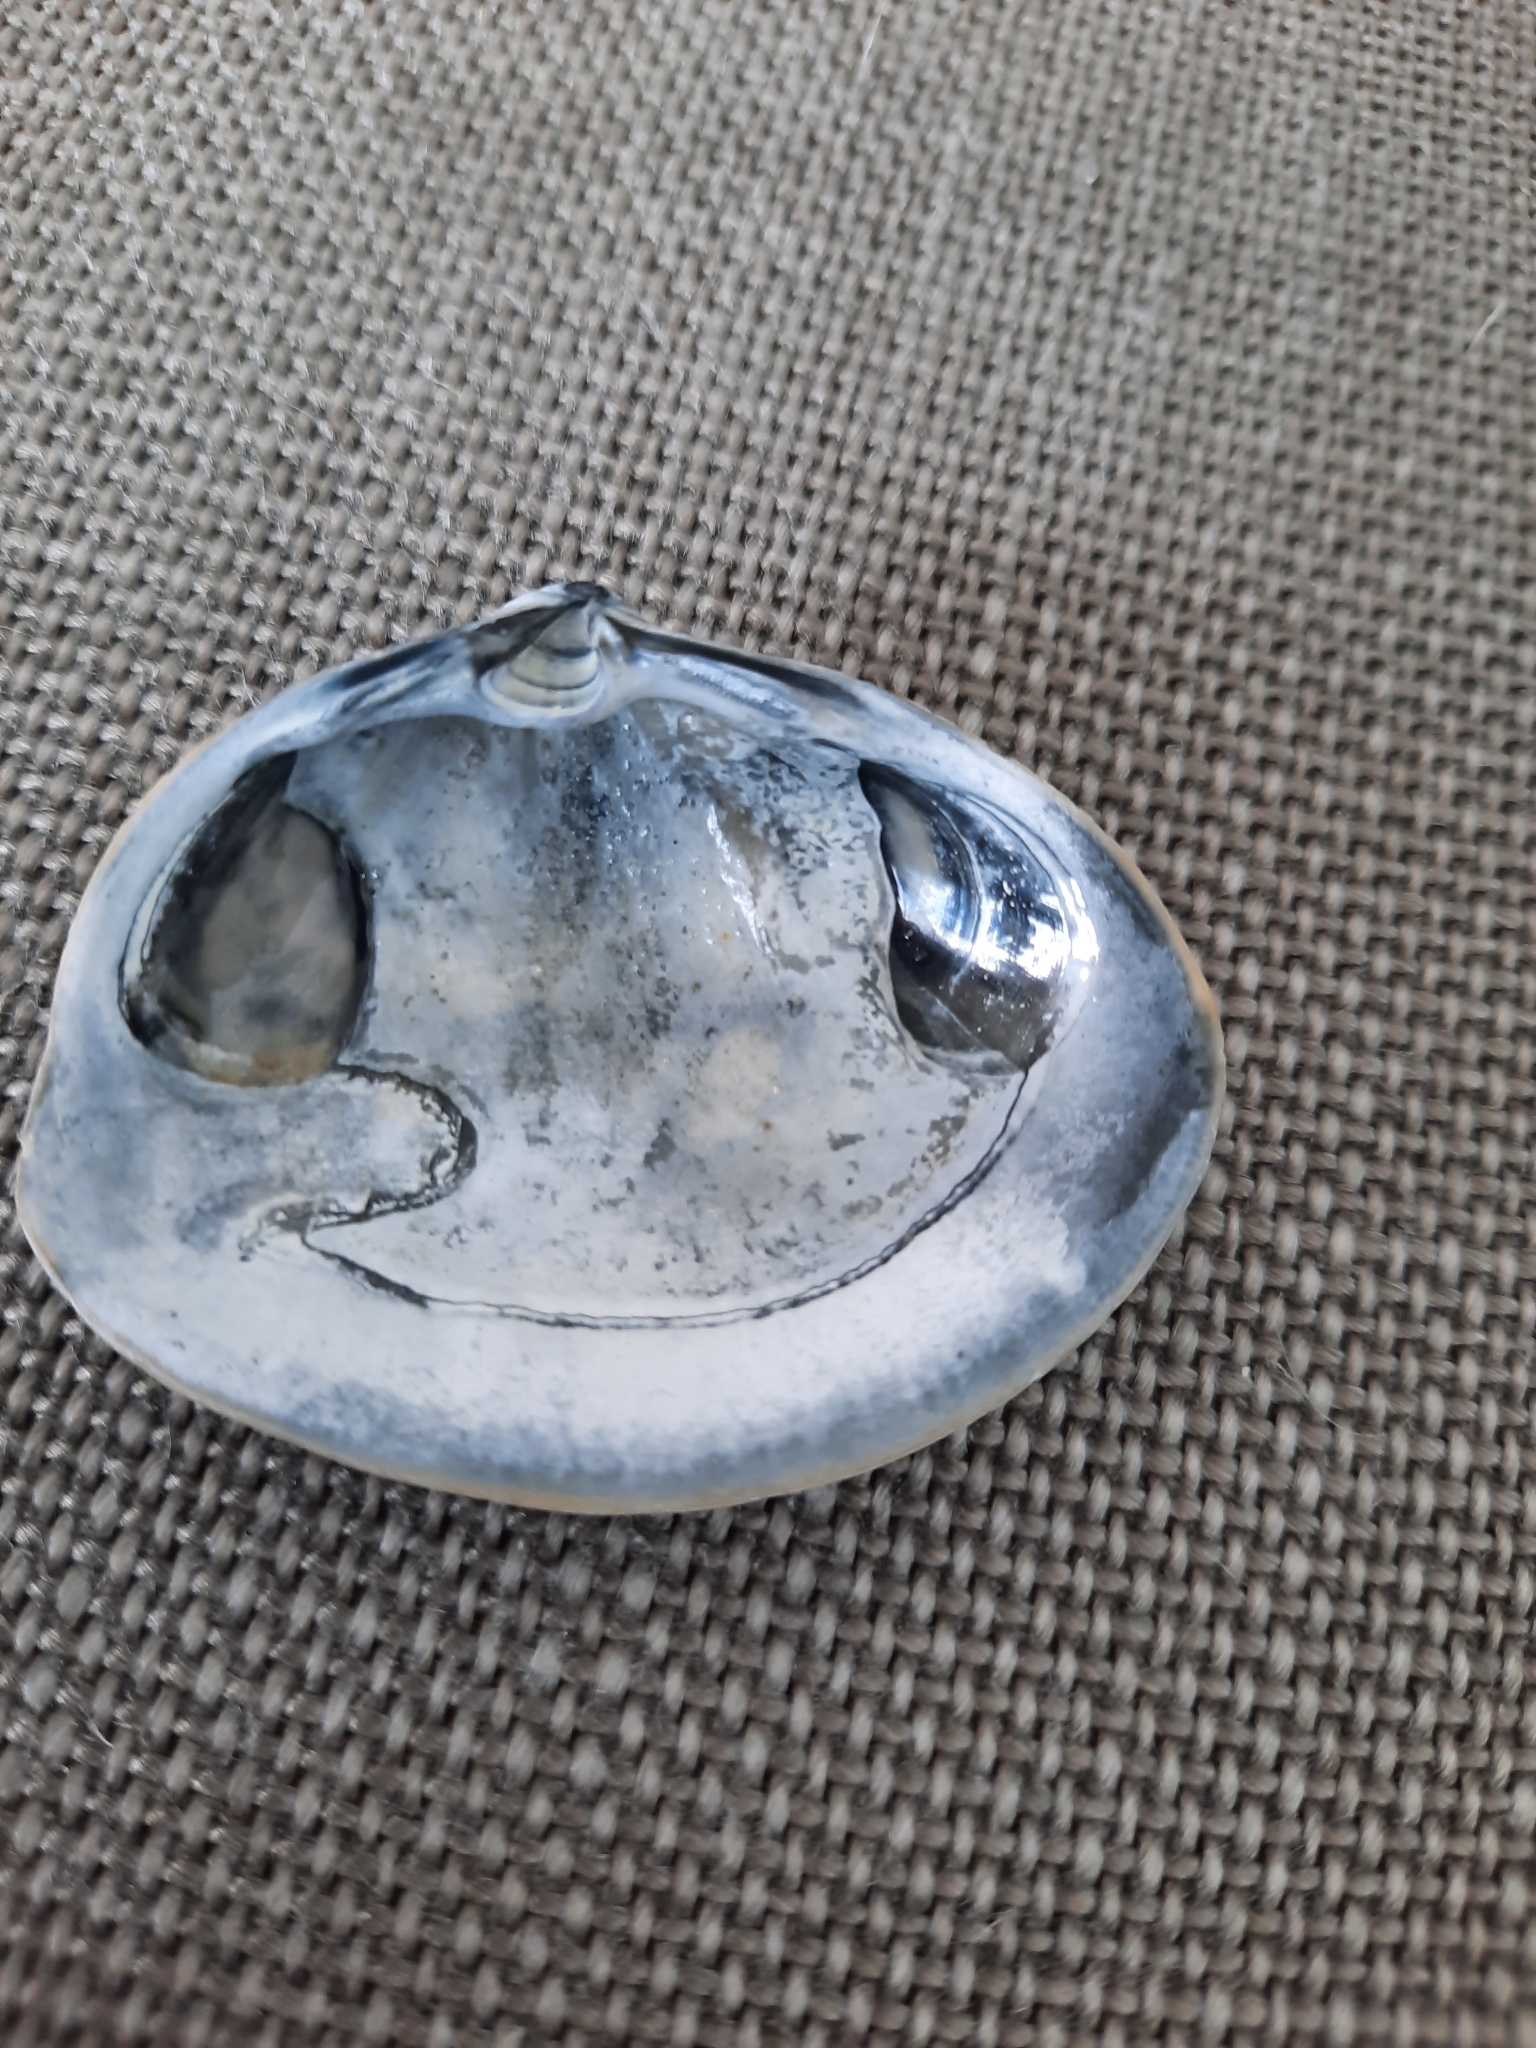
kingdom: Animalia
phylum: Mollusca
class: Bivalvia
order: Venerida
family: Mactridae
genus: Spisula
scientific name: Spisula solida
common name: Thick trough shell
